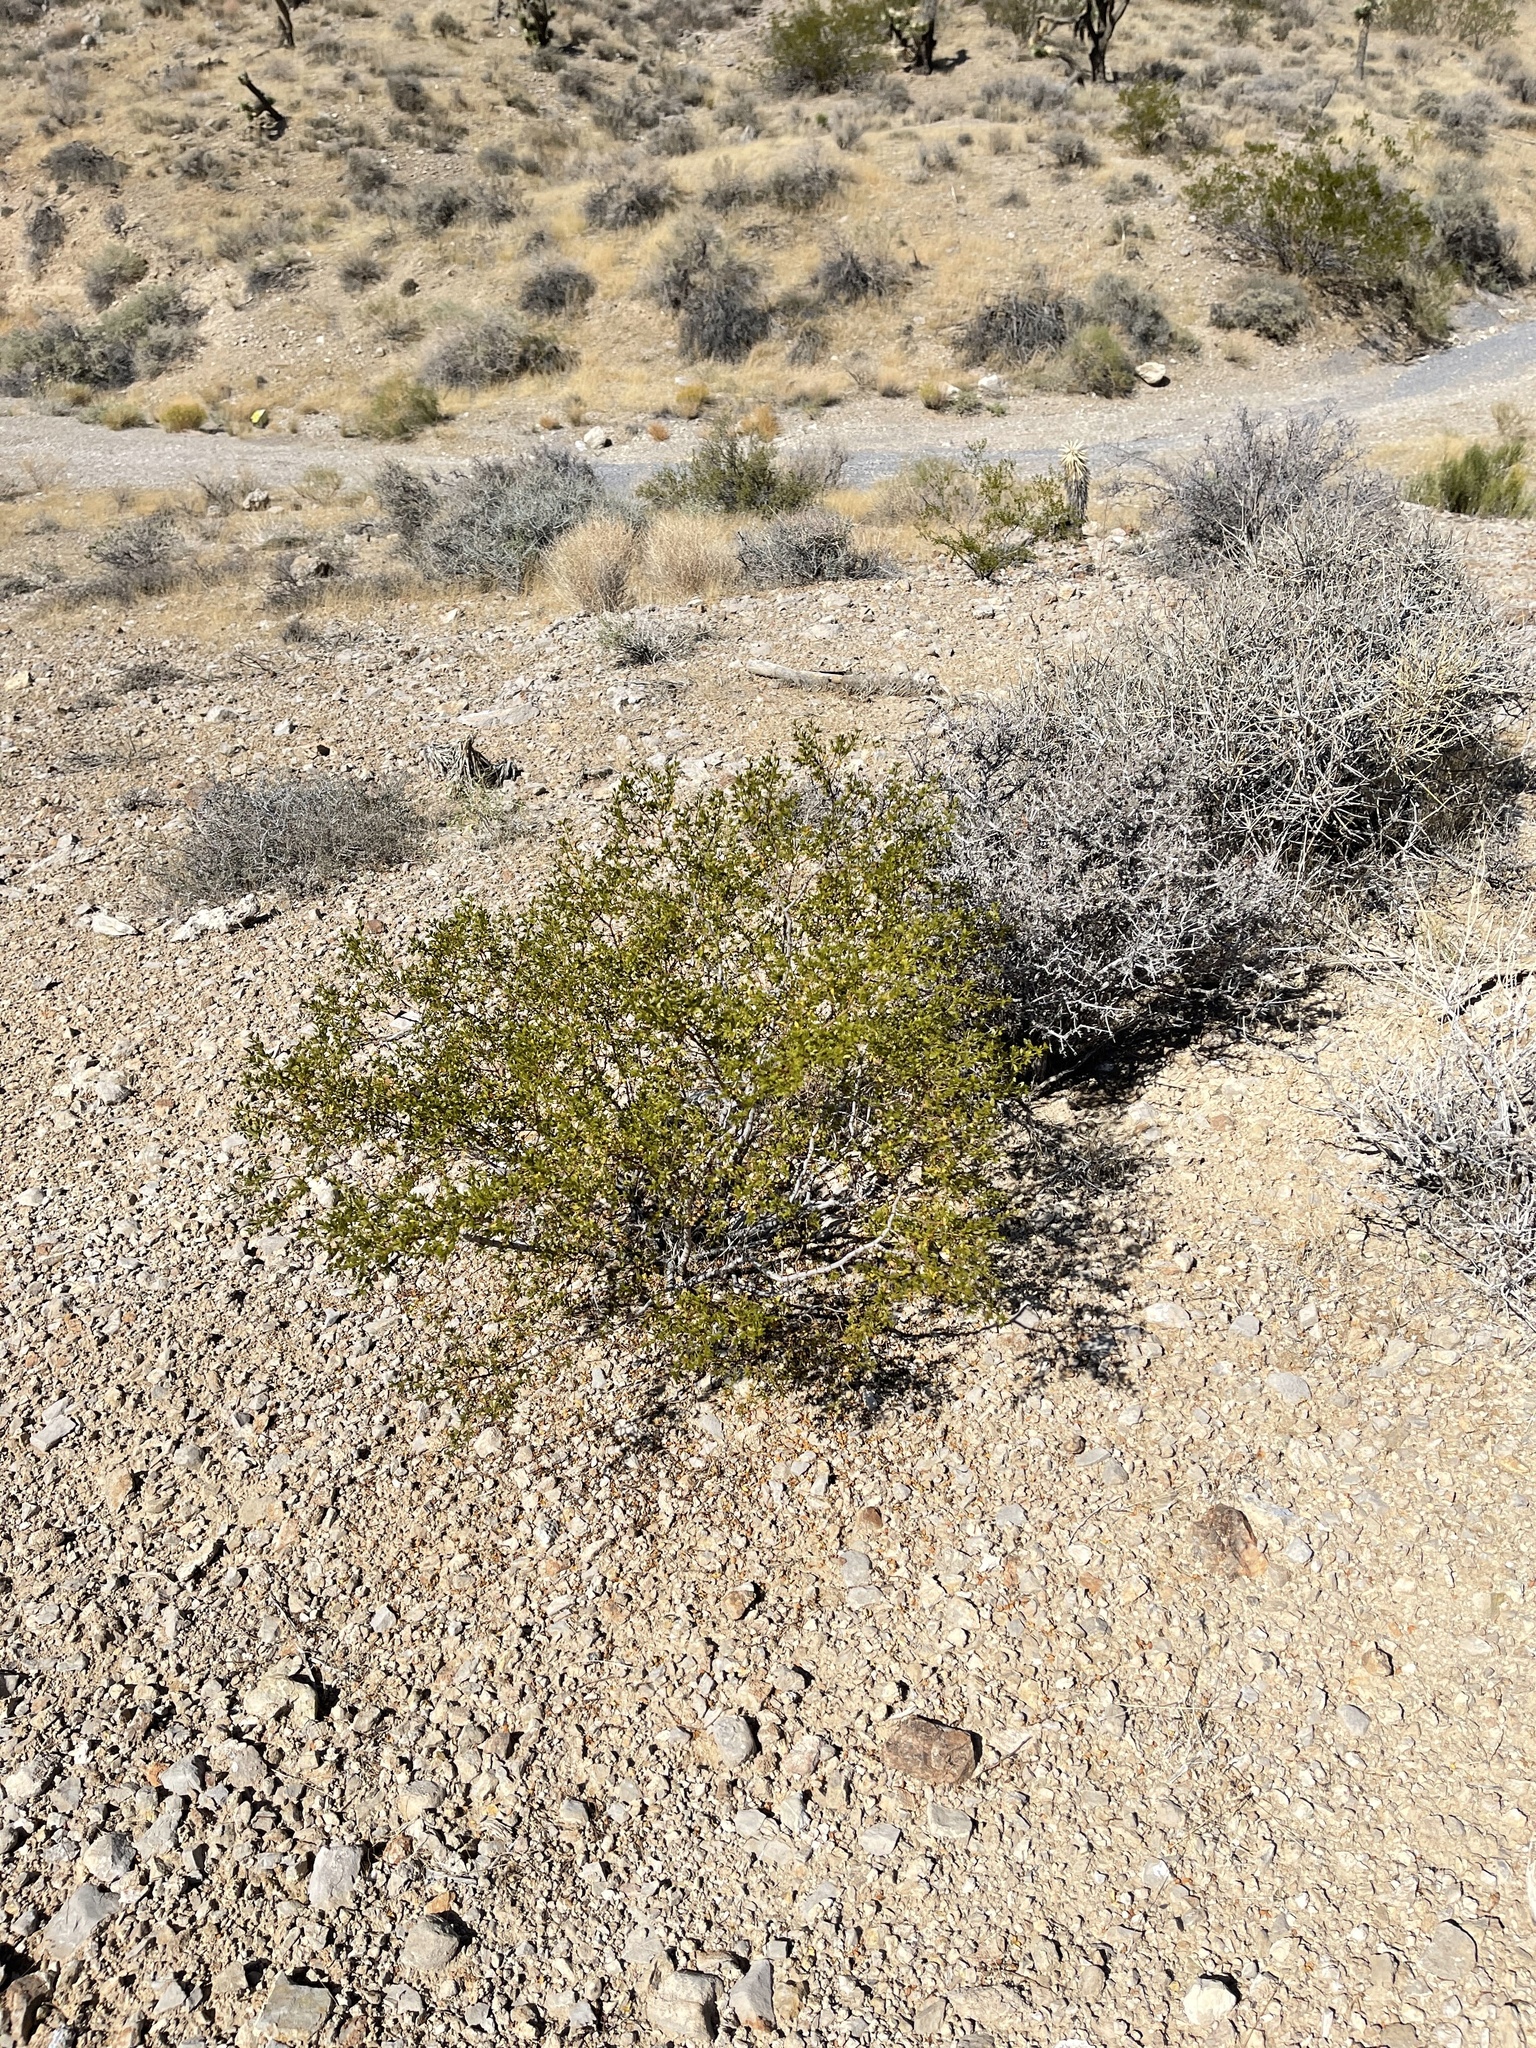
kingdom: Plantae
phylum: Tracheophyta
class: Magnoliopsida
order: Zygophyllales
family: Zygophyllaceae
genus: Larrea
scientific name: Larrea tridentata
